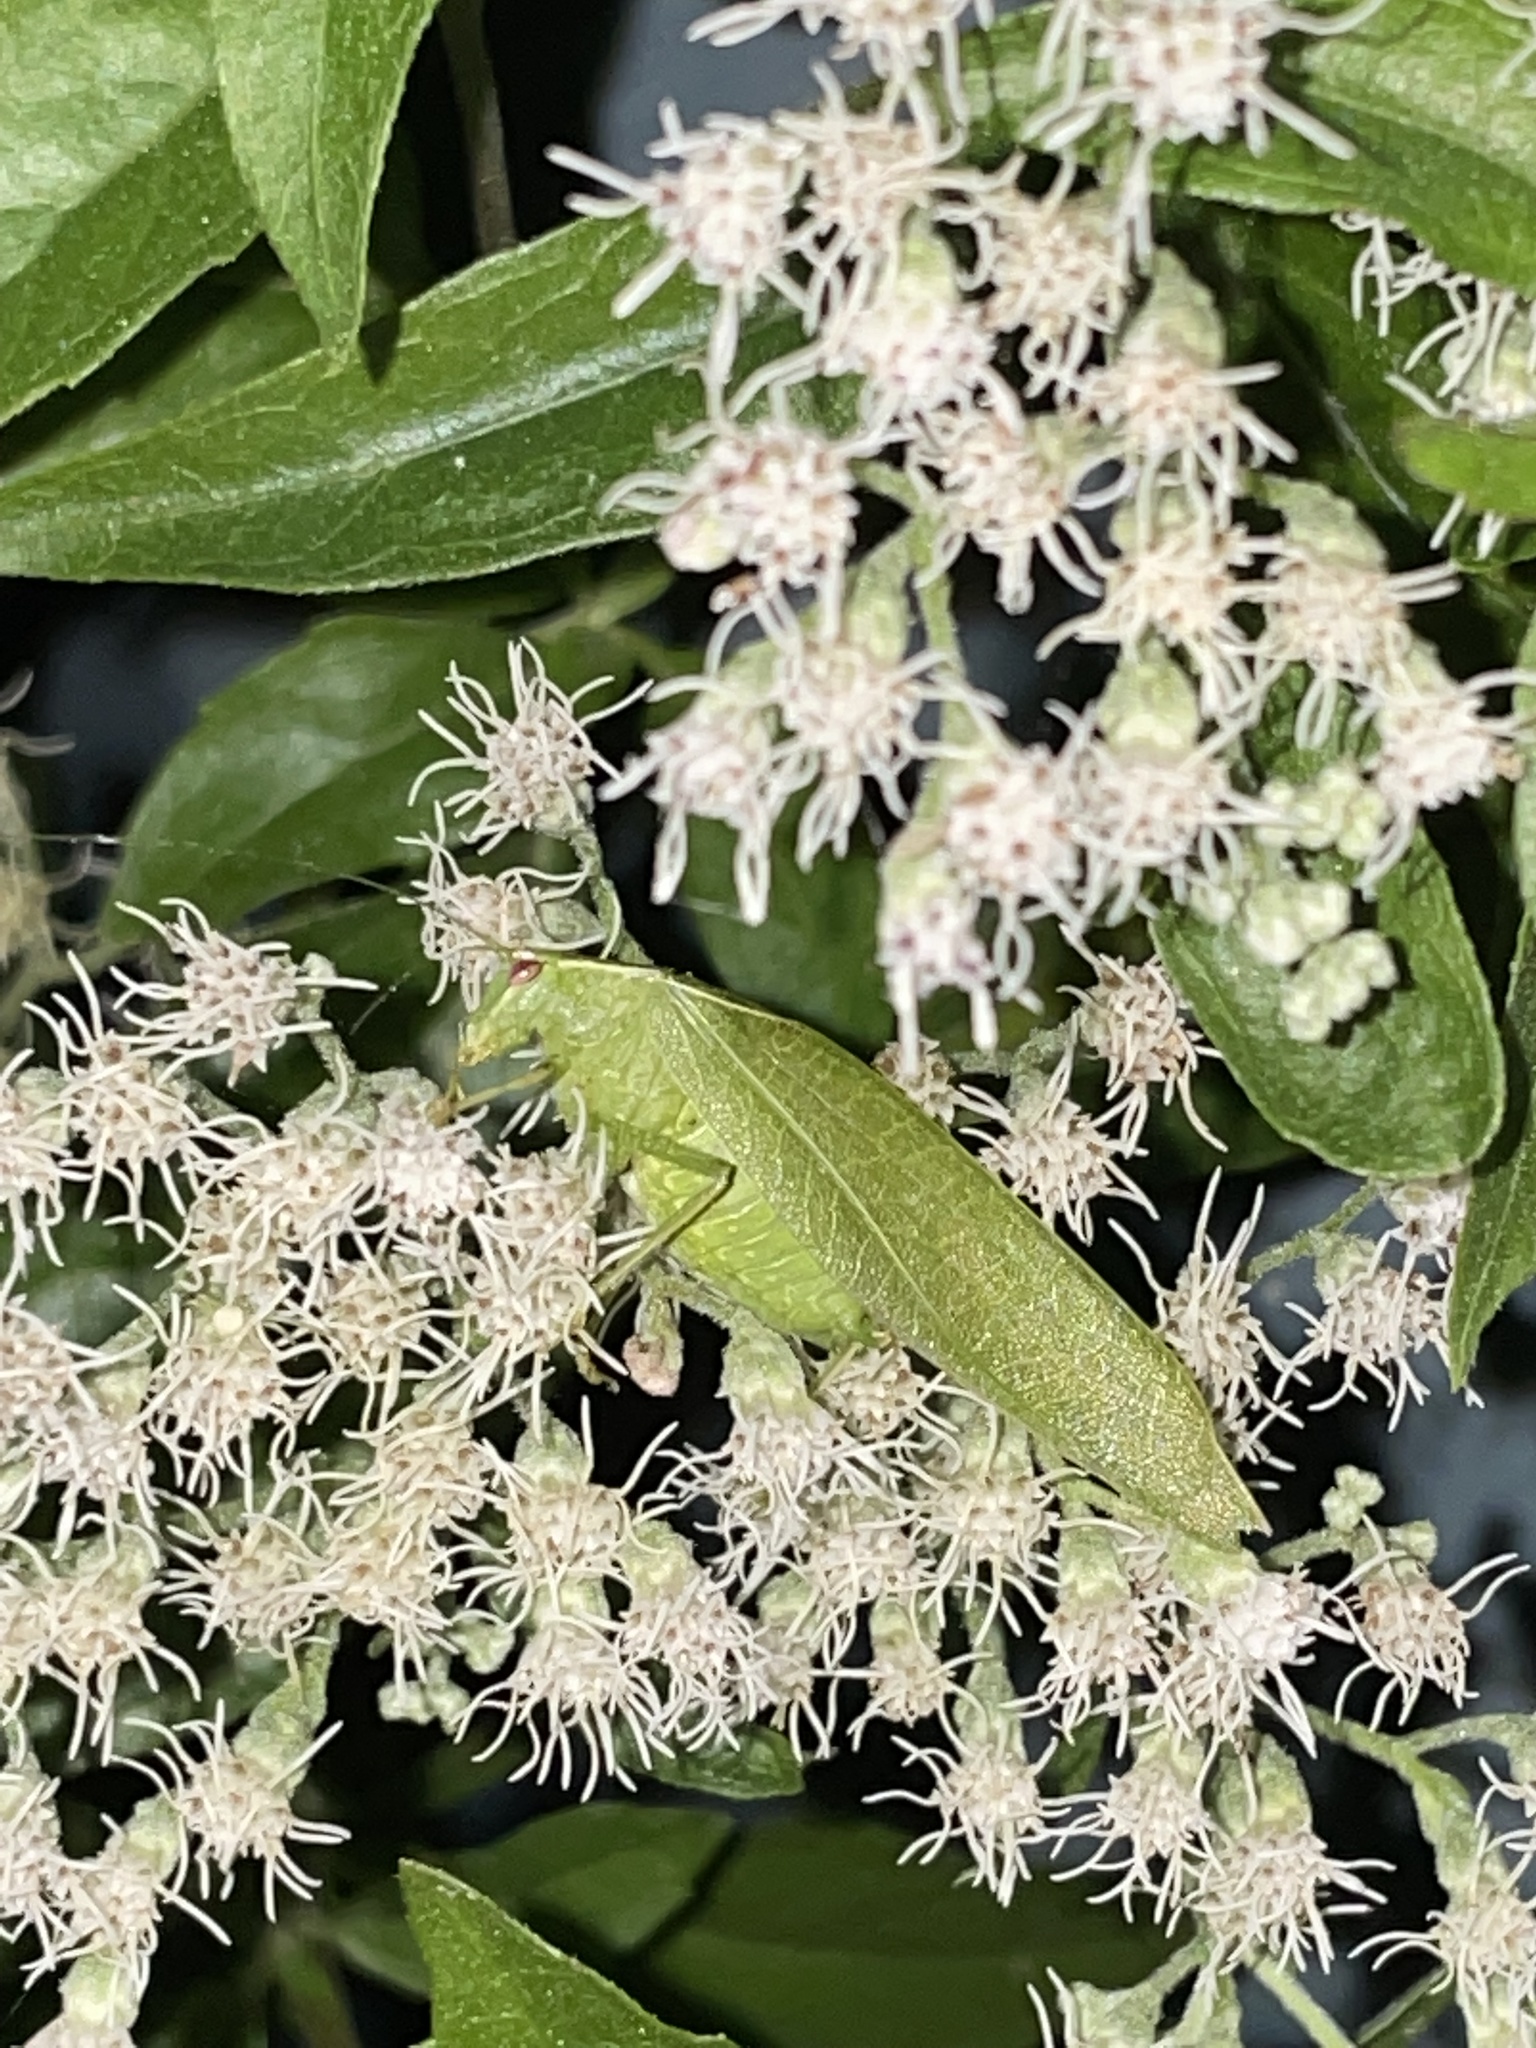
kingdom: Animalia
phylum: Arthropoda
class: Insecta
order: Orthoptera
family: Tettigoniidae
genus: Montezumina
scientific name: Montezumina modesta
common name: Modest katydid
